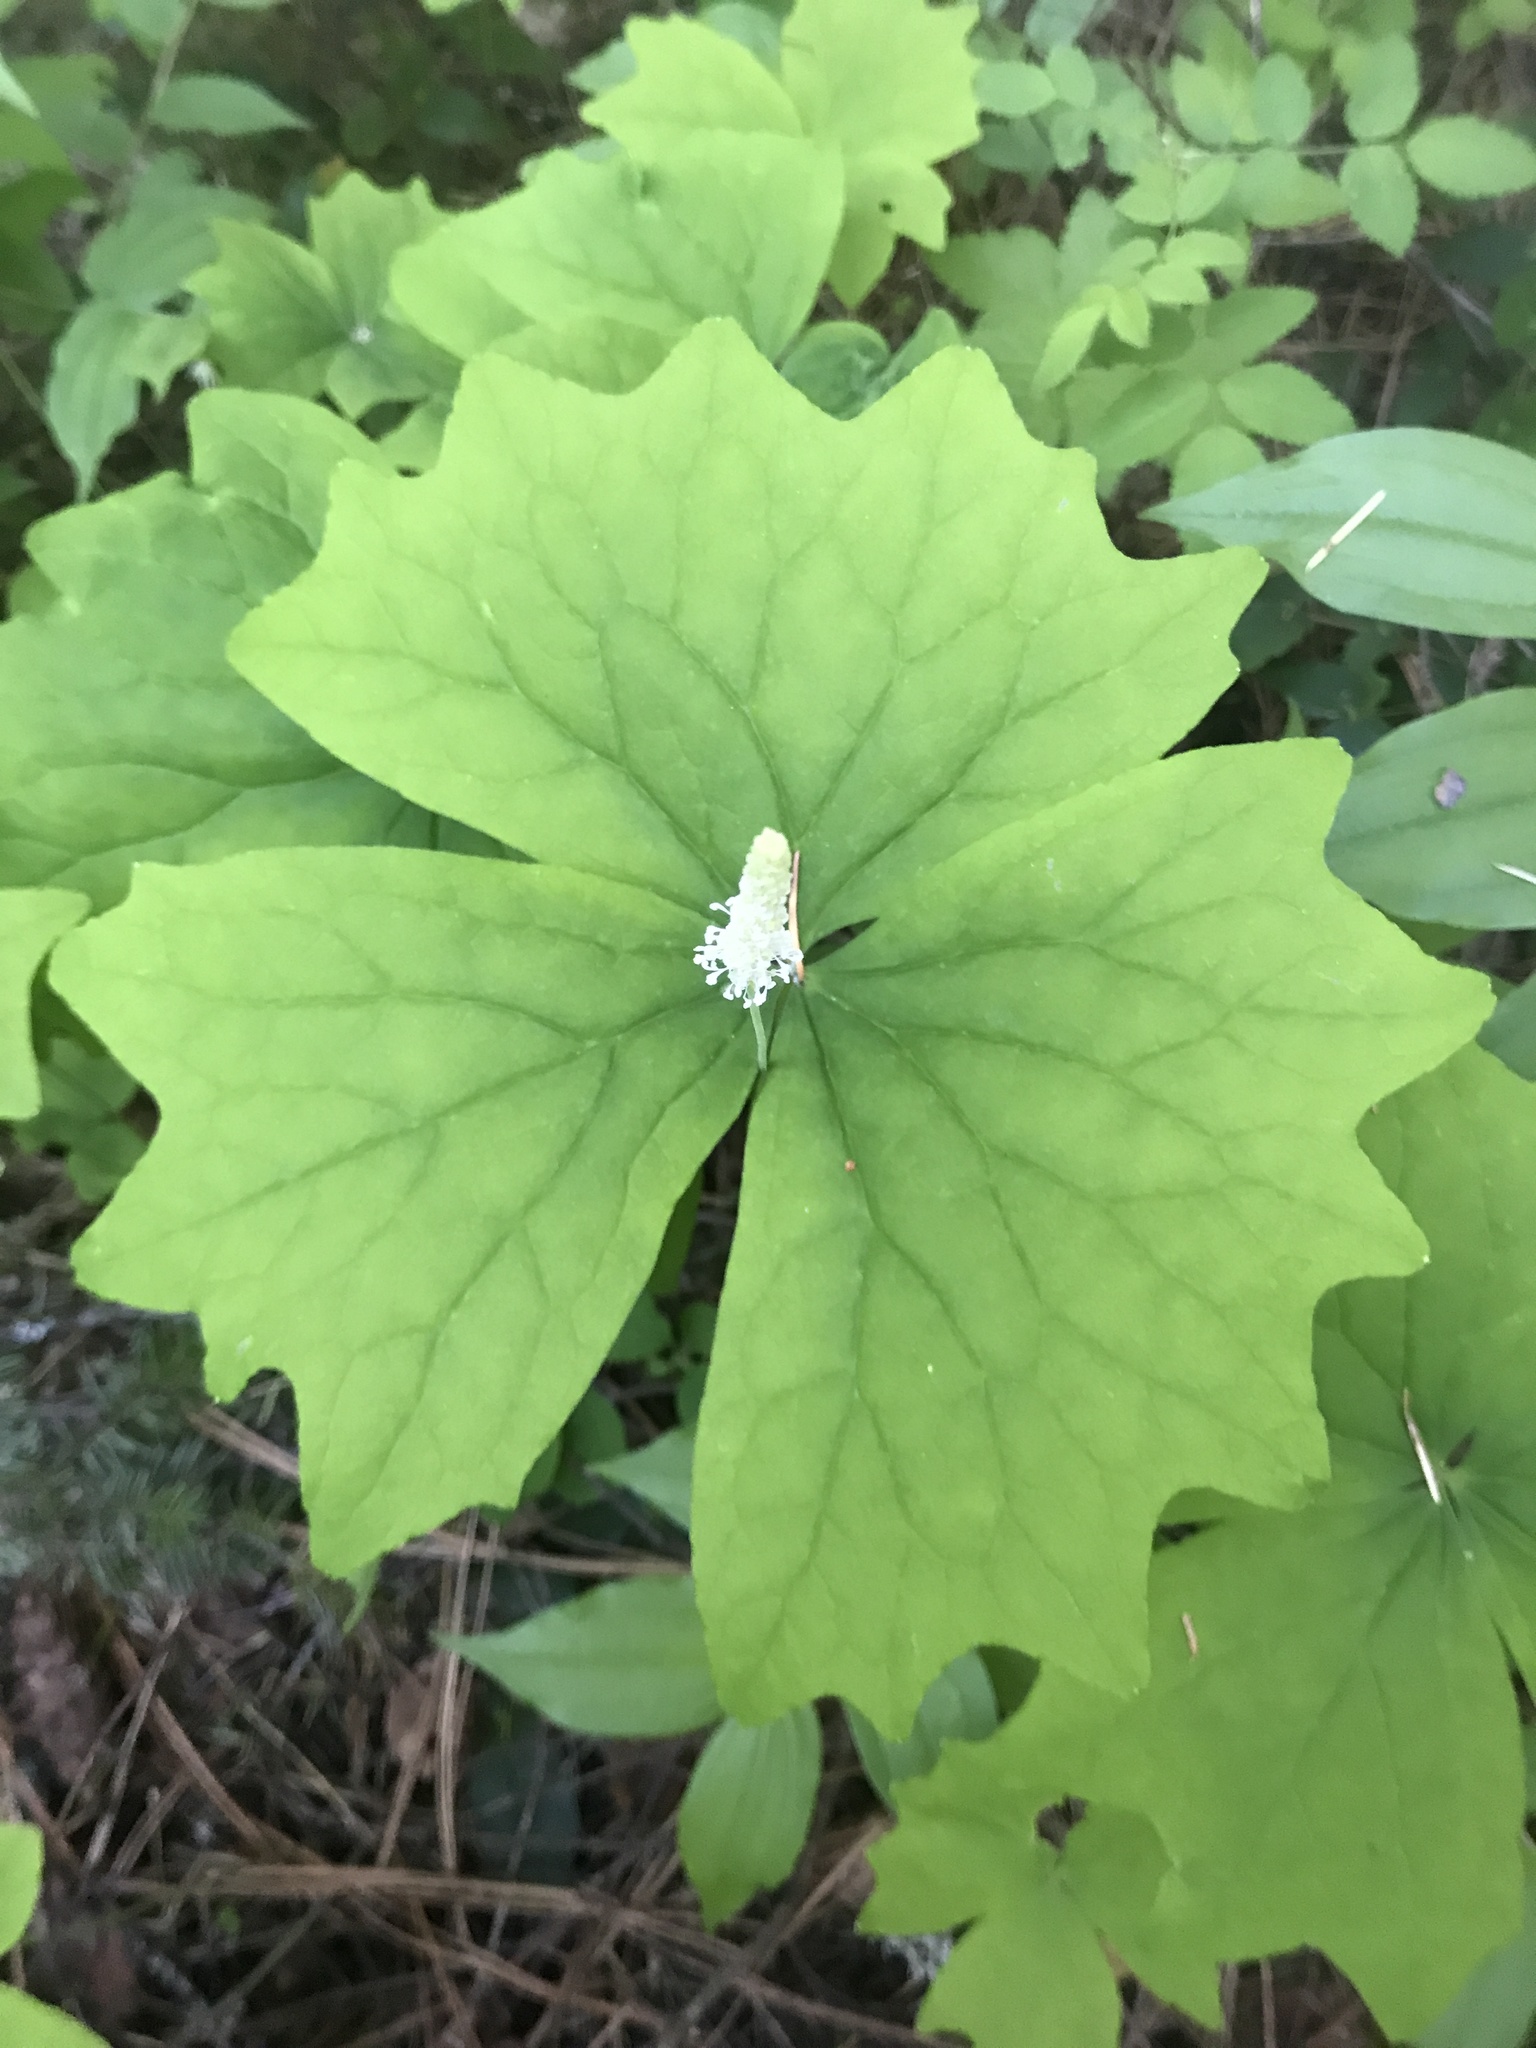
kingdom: Plantae
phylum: Tracheophyta
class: Magnoliopsida
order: Ranunculales
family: Berberidaceae
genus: Achlys
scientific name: Achlys triphylla
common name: Vanilla-leaf
